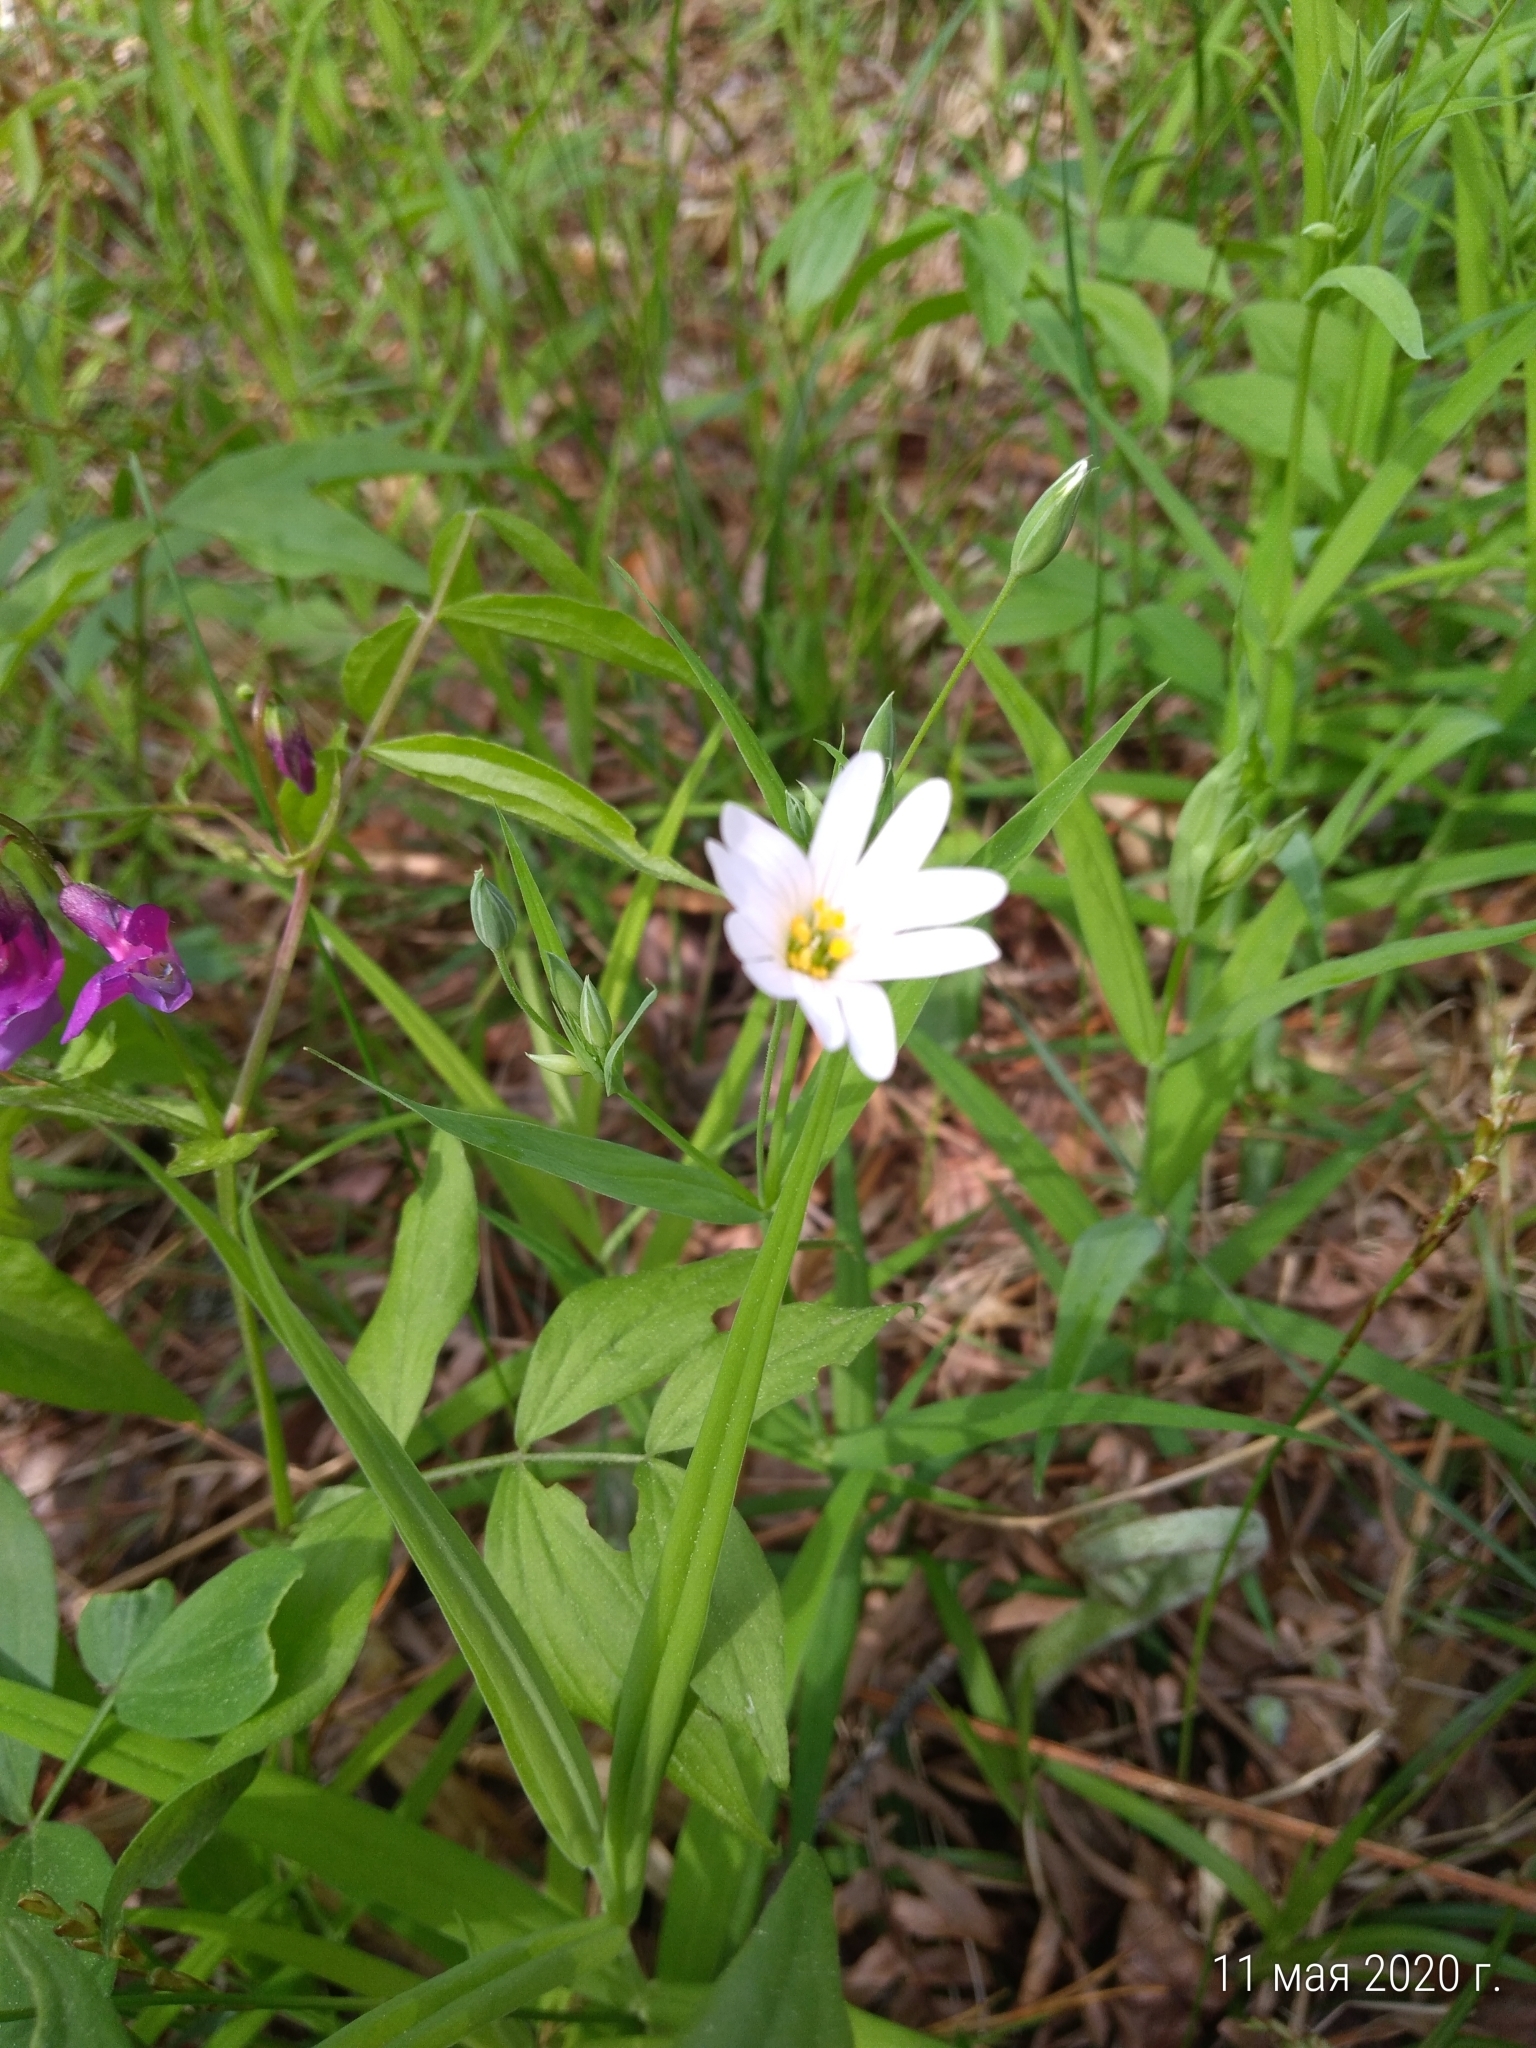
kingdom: Plantae
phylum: Tracheophyta
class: Magnoliopsida
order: Caryophyllales
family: Caryophyllaceae
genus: Rabelera
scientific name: Rabelera holostea
